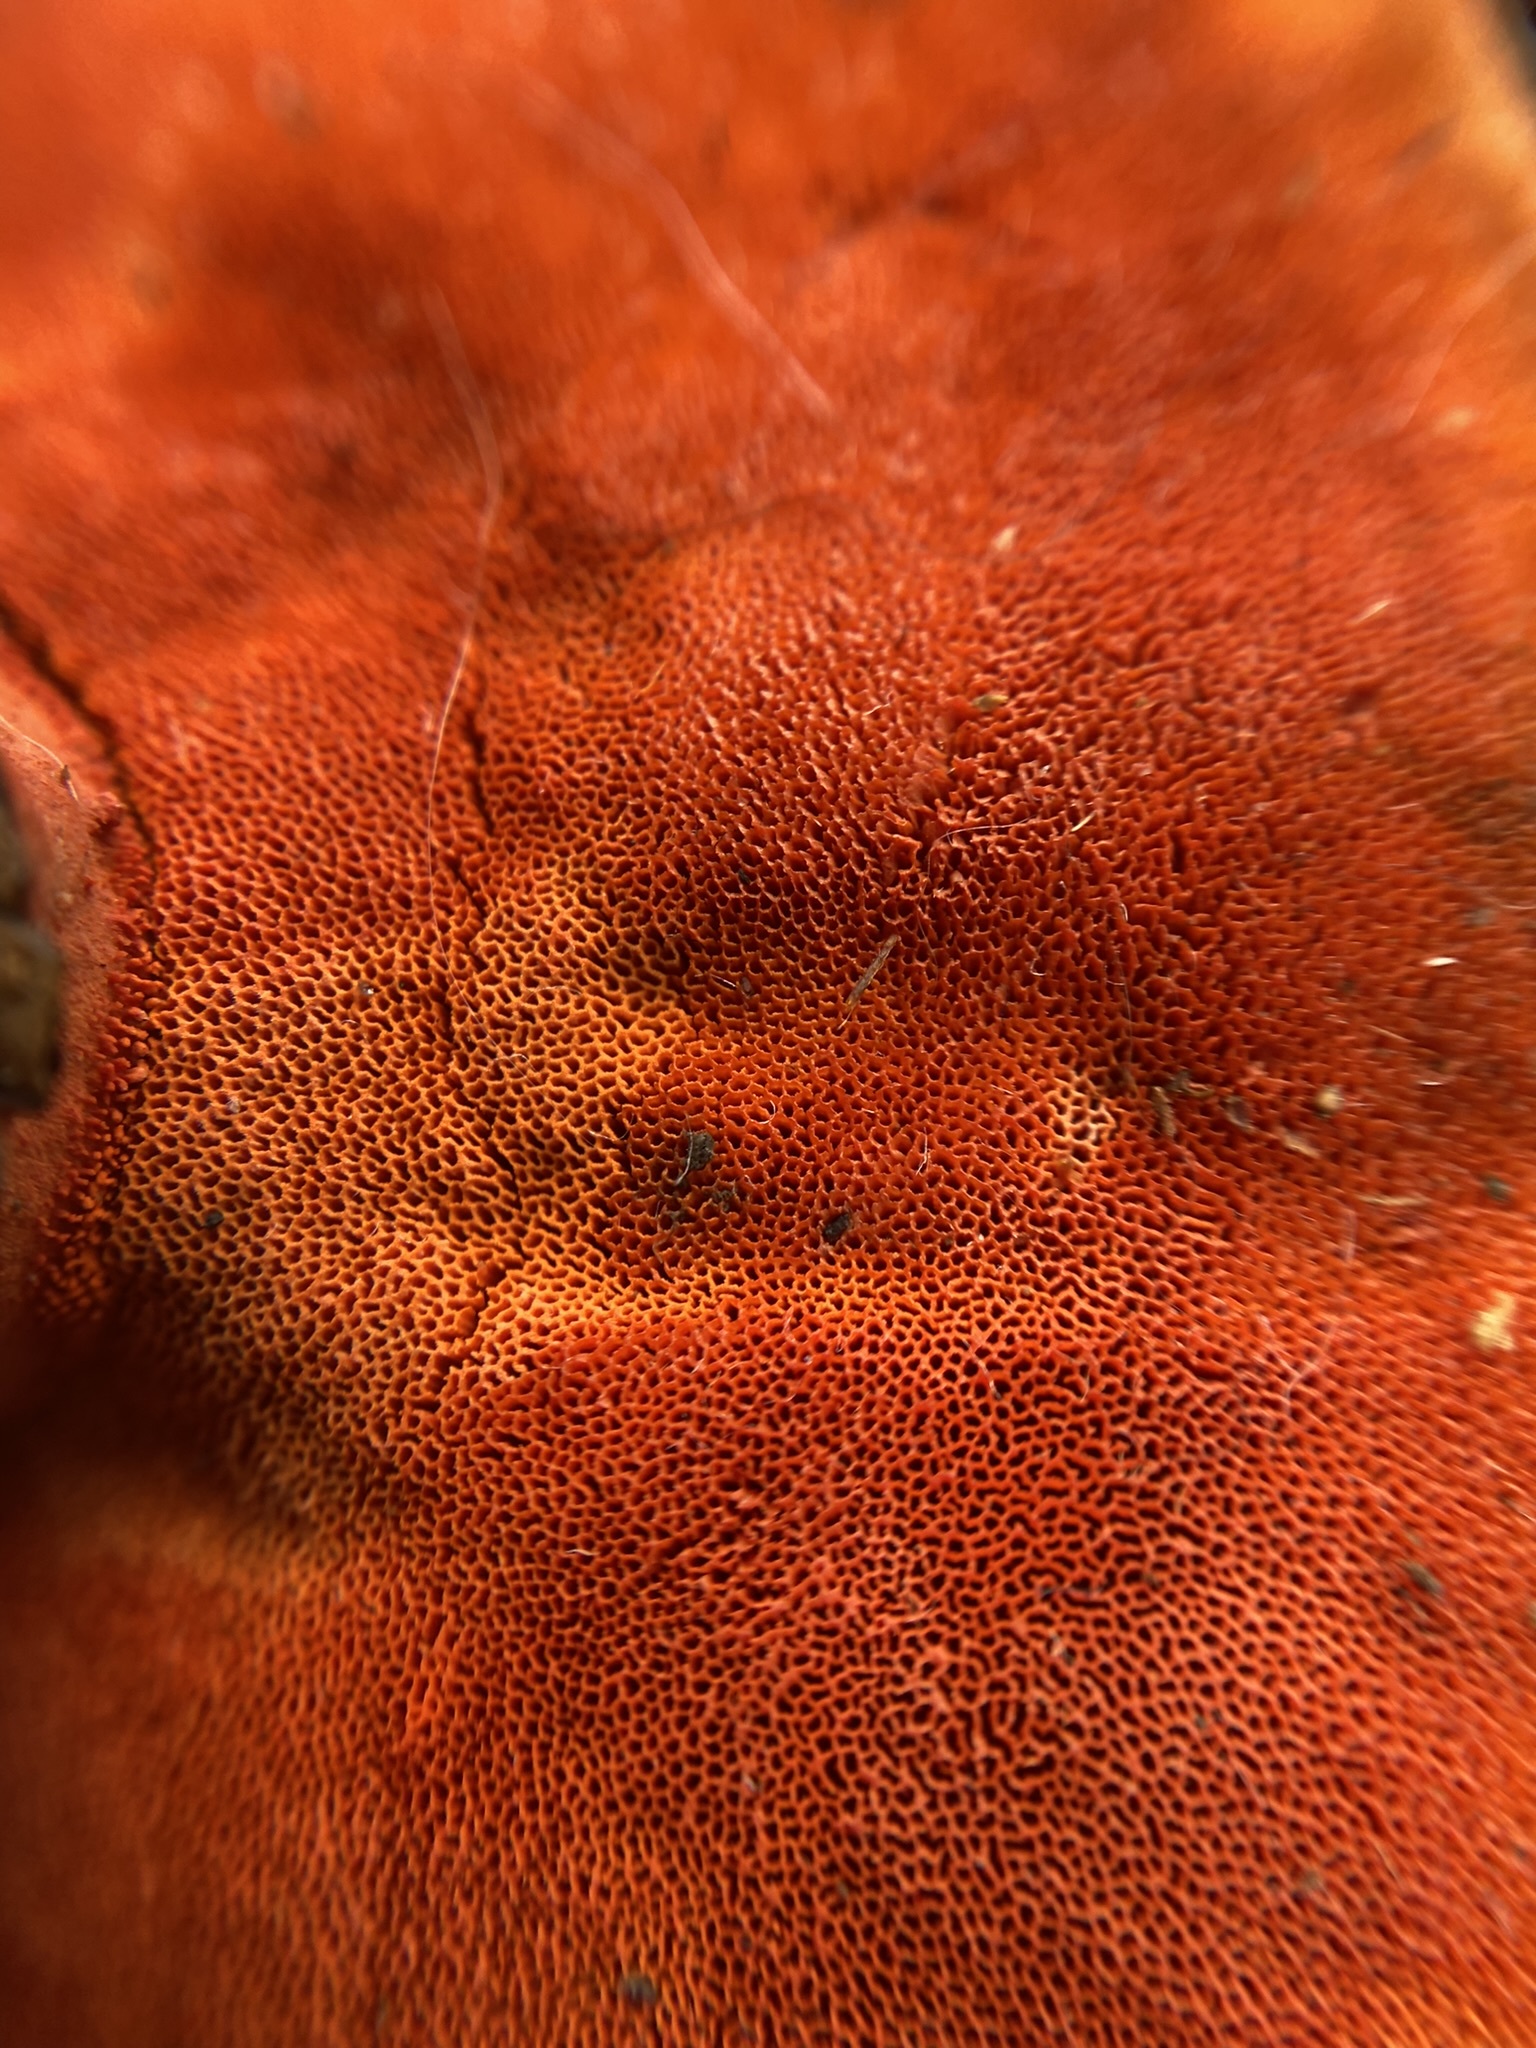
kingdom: Fungi
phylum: Basidiomycota
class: Agaricomycetes
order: Polyporales
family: Polyporaceae
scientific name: Polyporaceae
